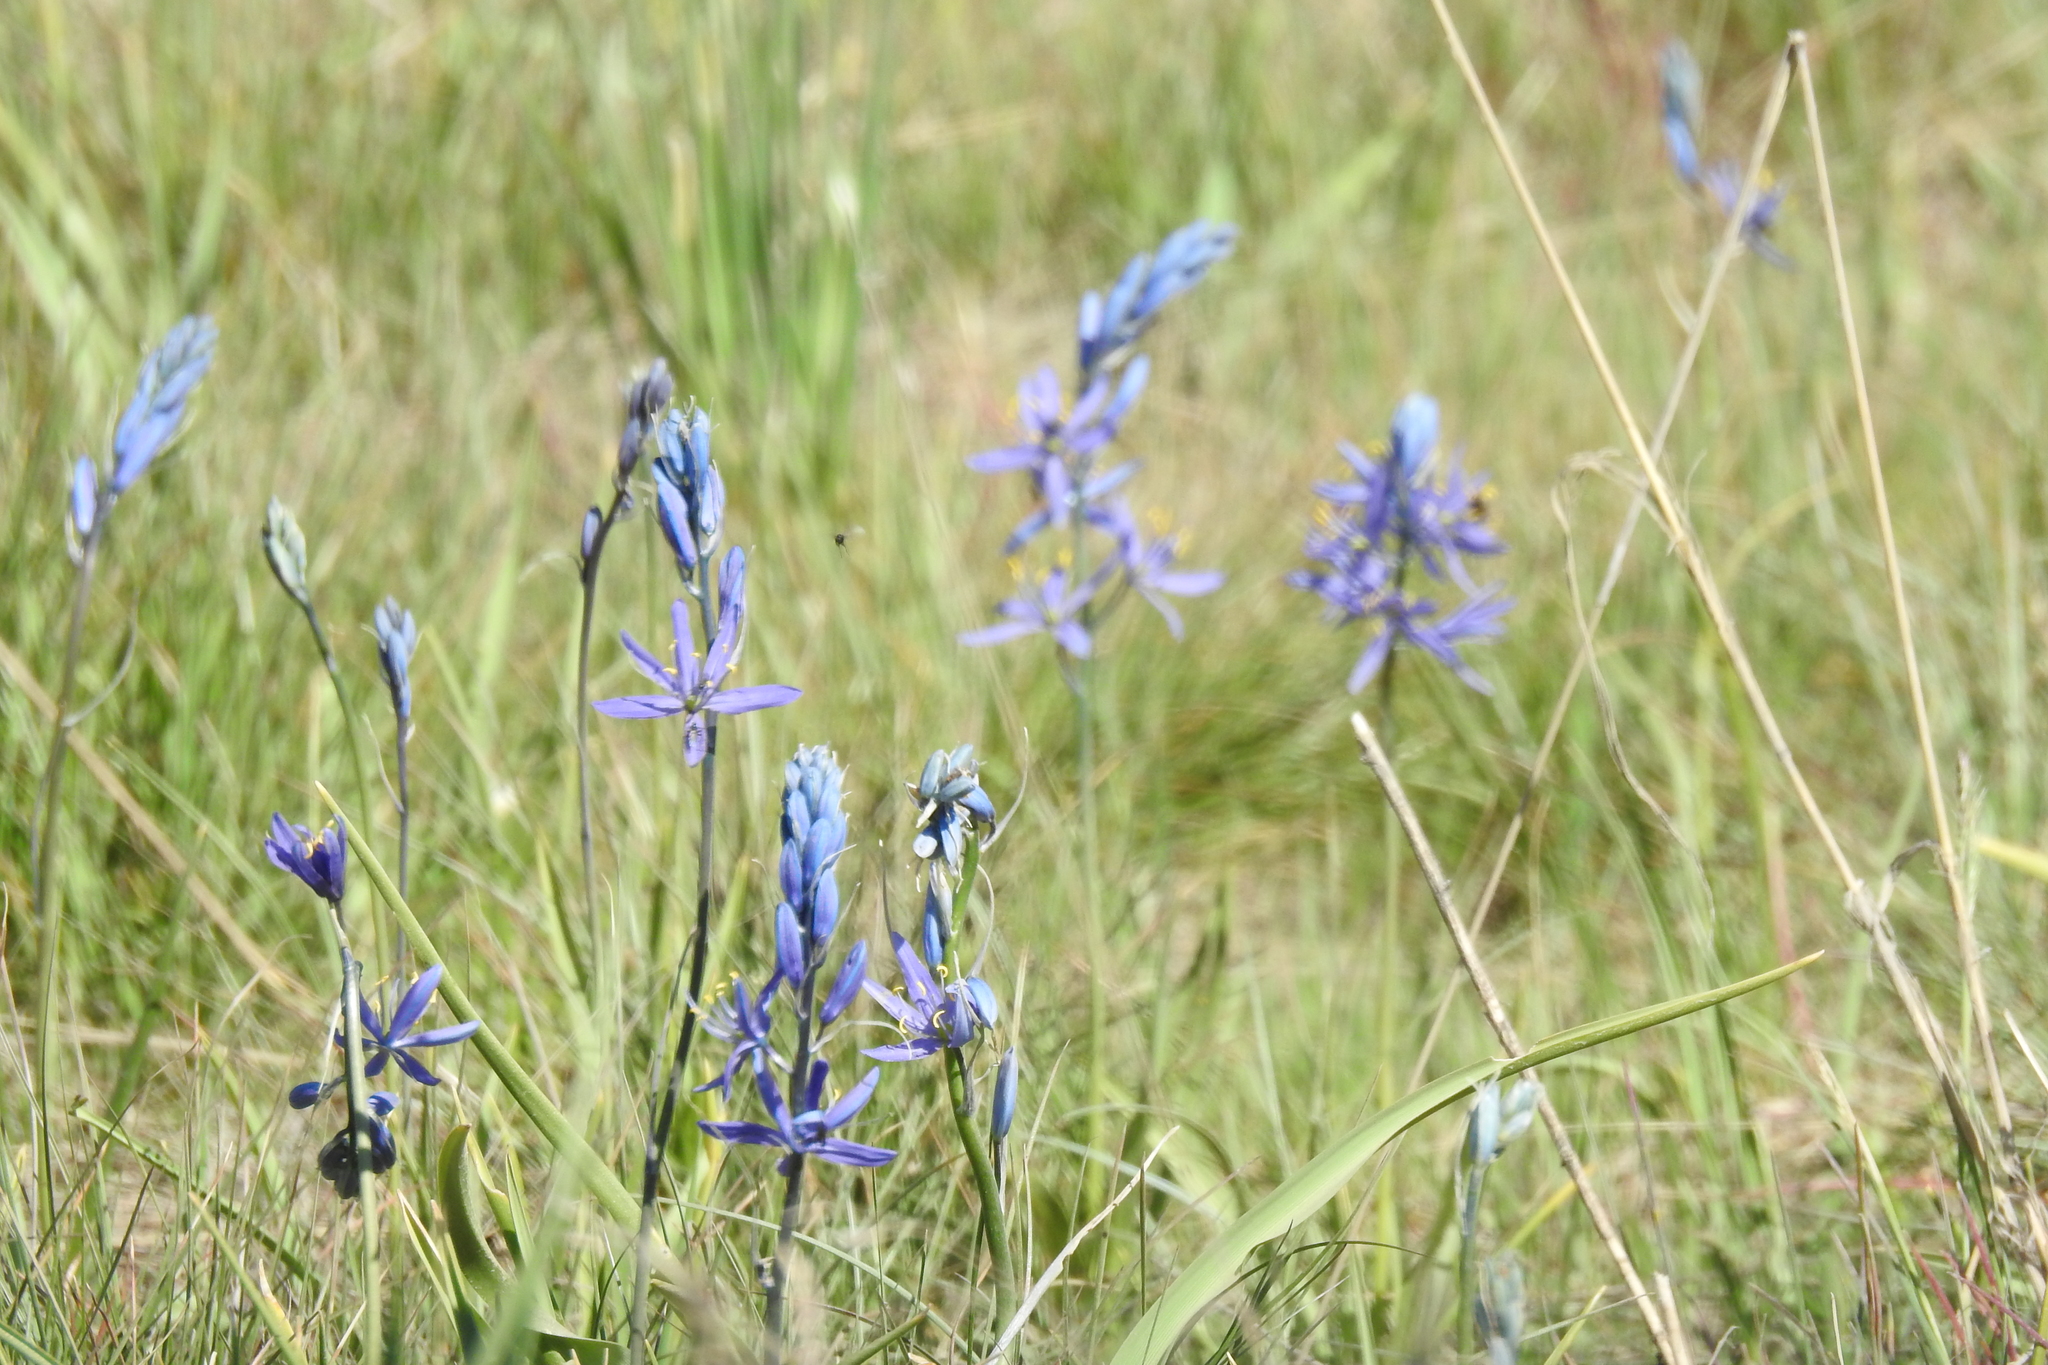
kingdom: Plantae
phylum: Tracheophyta
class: Liliopsida
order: Asparagales
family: Asparagaceae
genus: Camassia
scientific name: Camassia quamash
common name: Common camas
